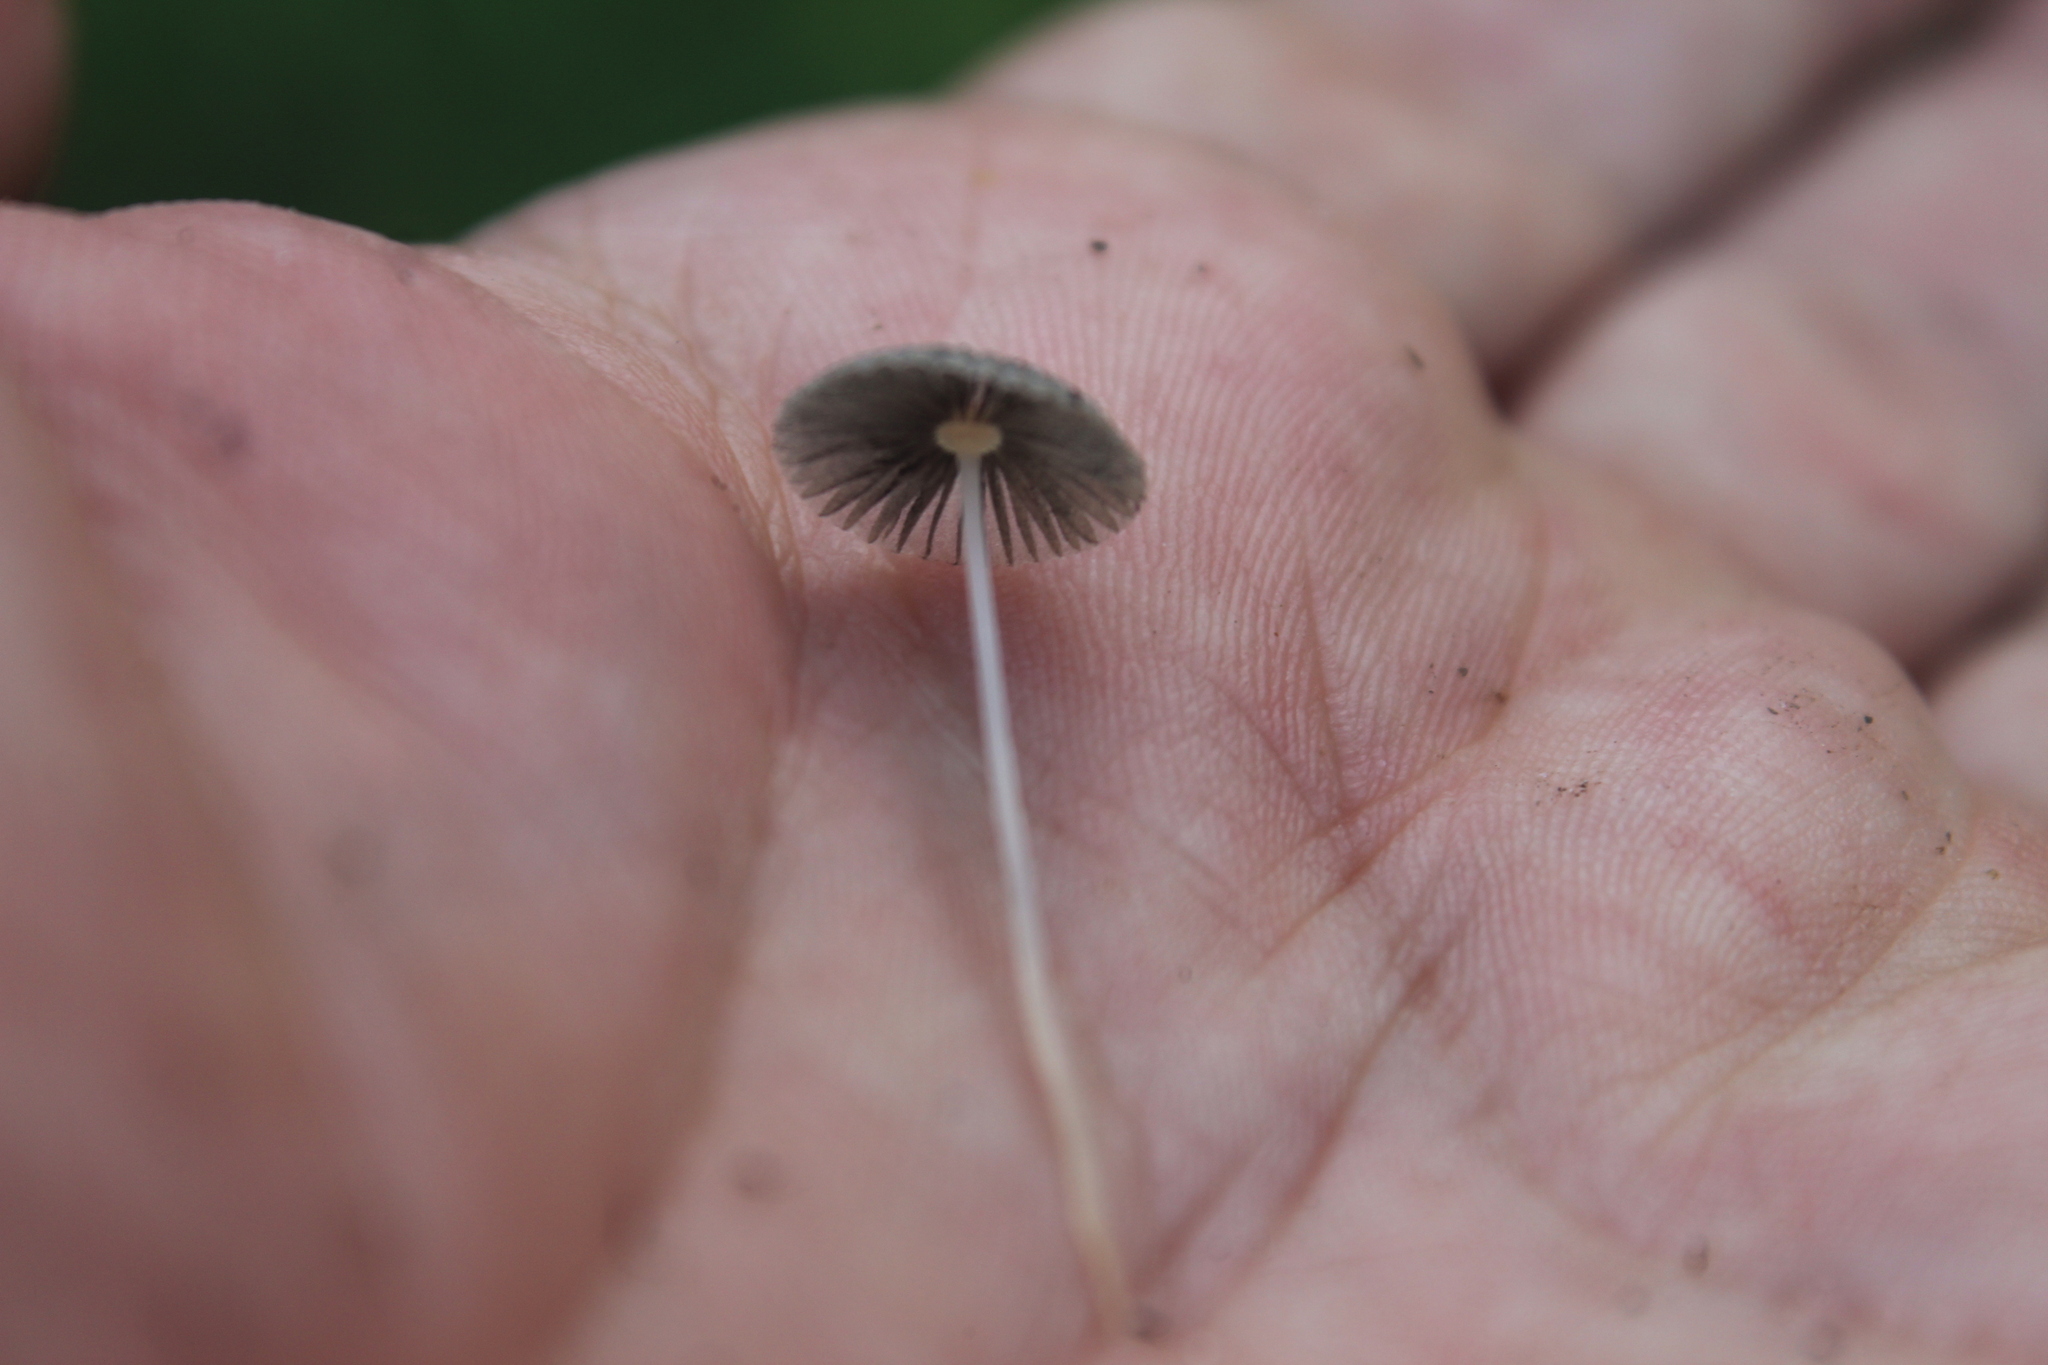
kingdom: Fungi
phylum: Basidiomycota
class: Agaricomycetes
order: Agaricales
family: Psathyrellaceae
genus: Parasola
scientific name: Parasola
